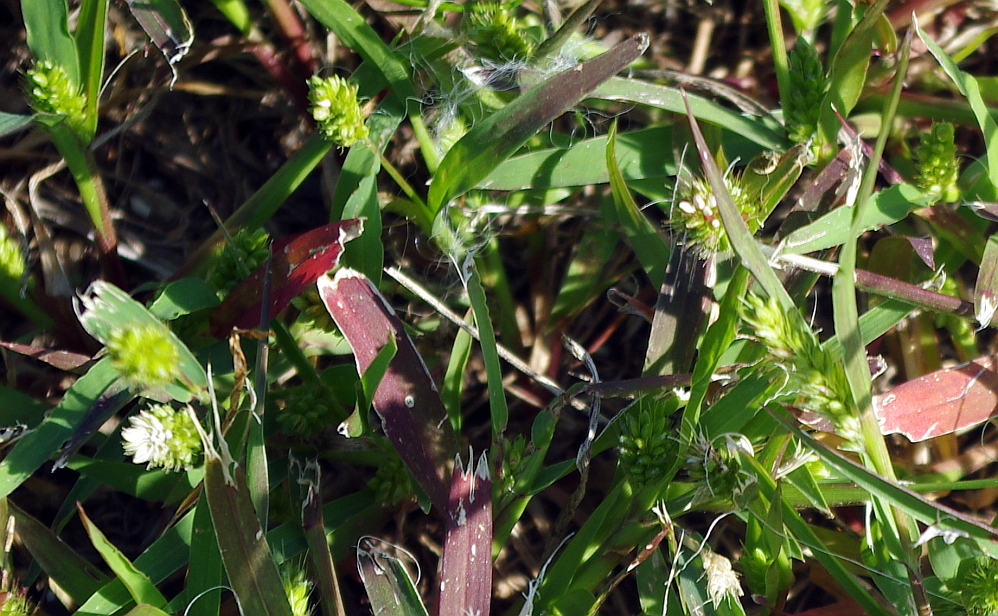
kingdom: Plantae
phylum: Tracheophyta
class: Liliopsida
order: Poales
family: Poaceae
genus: Setaria
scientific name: Setaria viridis
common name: Green bristlegrass
